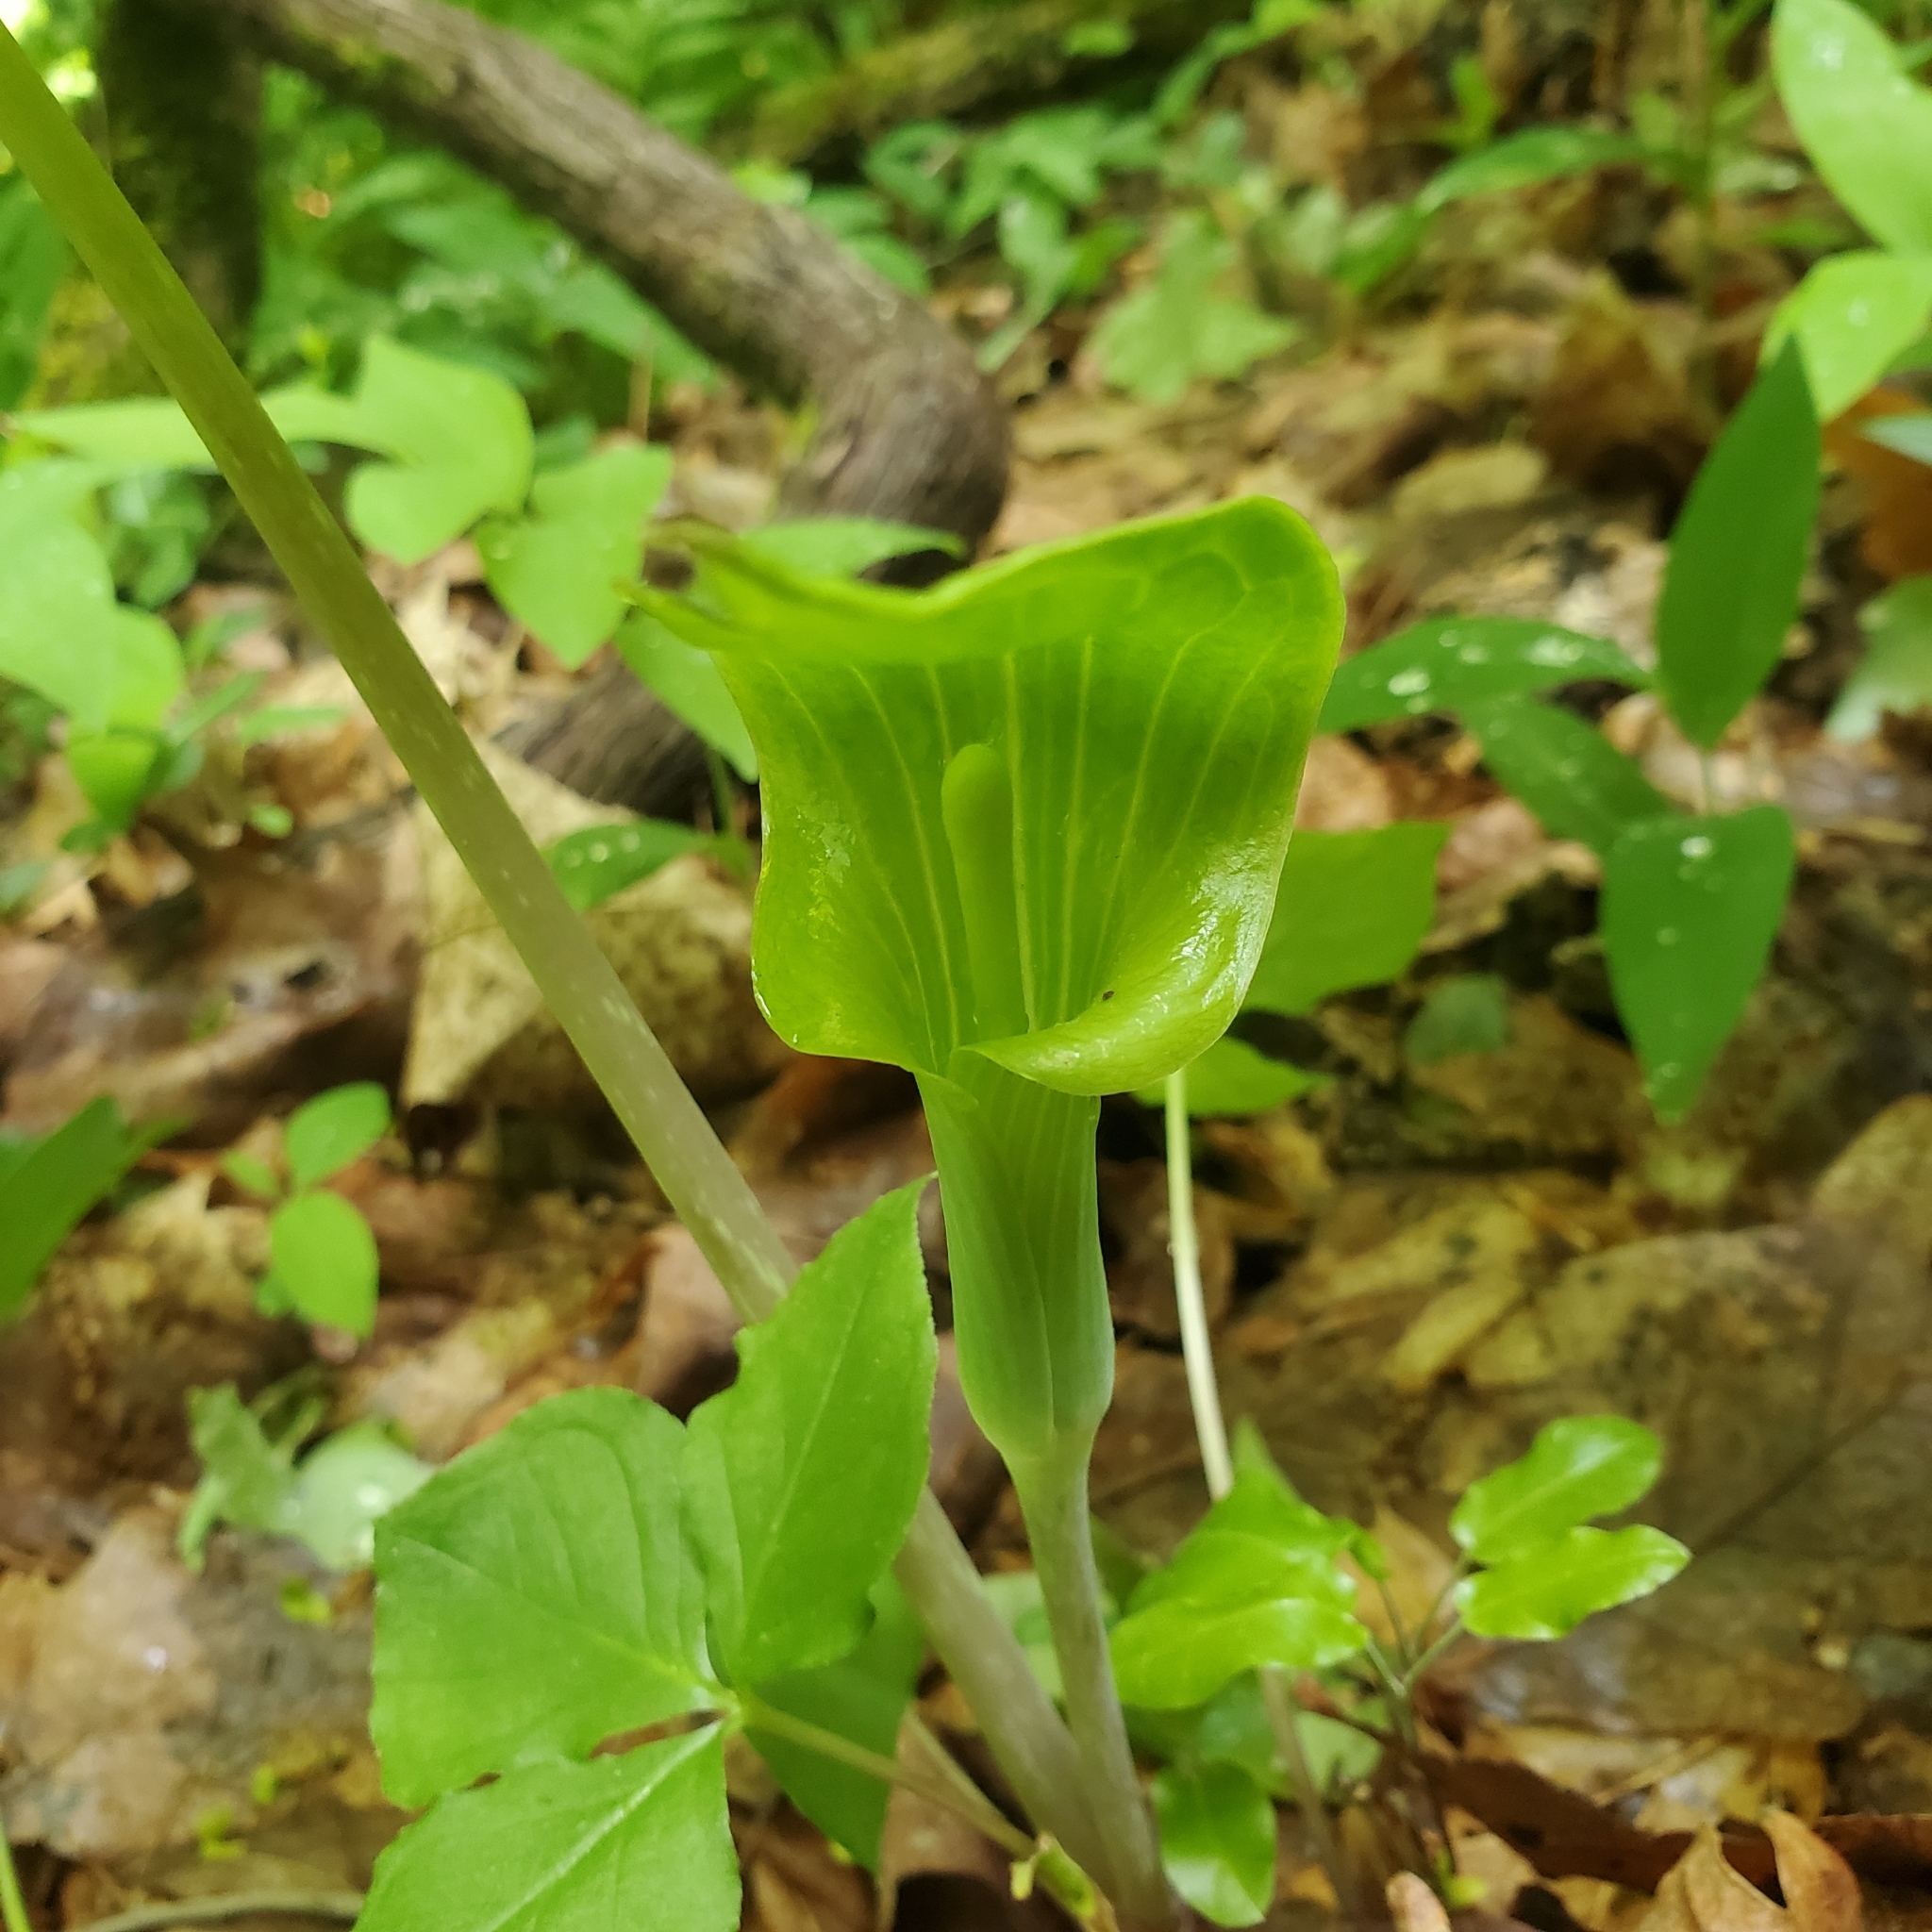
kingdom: Plantae
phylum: Tracheophyta
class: Liliopsida
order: Alismatales
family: Araceae
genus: Arisaema
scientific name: Arisaema triphyllum
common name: Jack-in-the-pulpit
